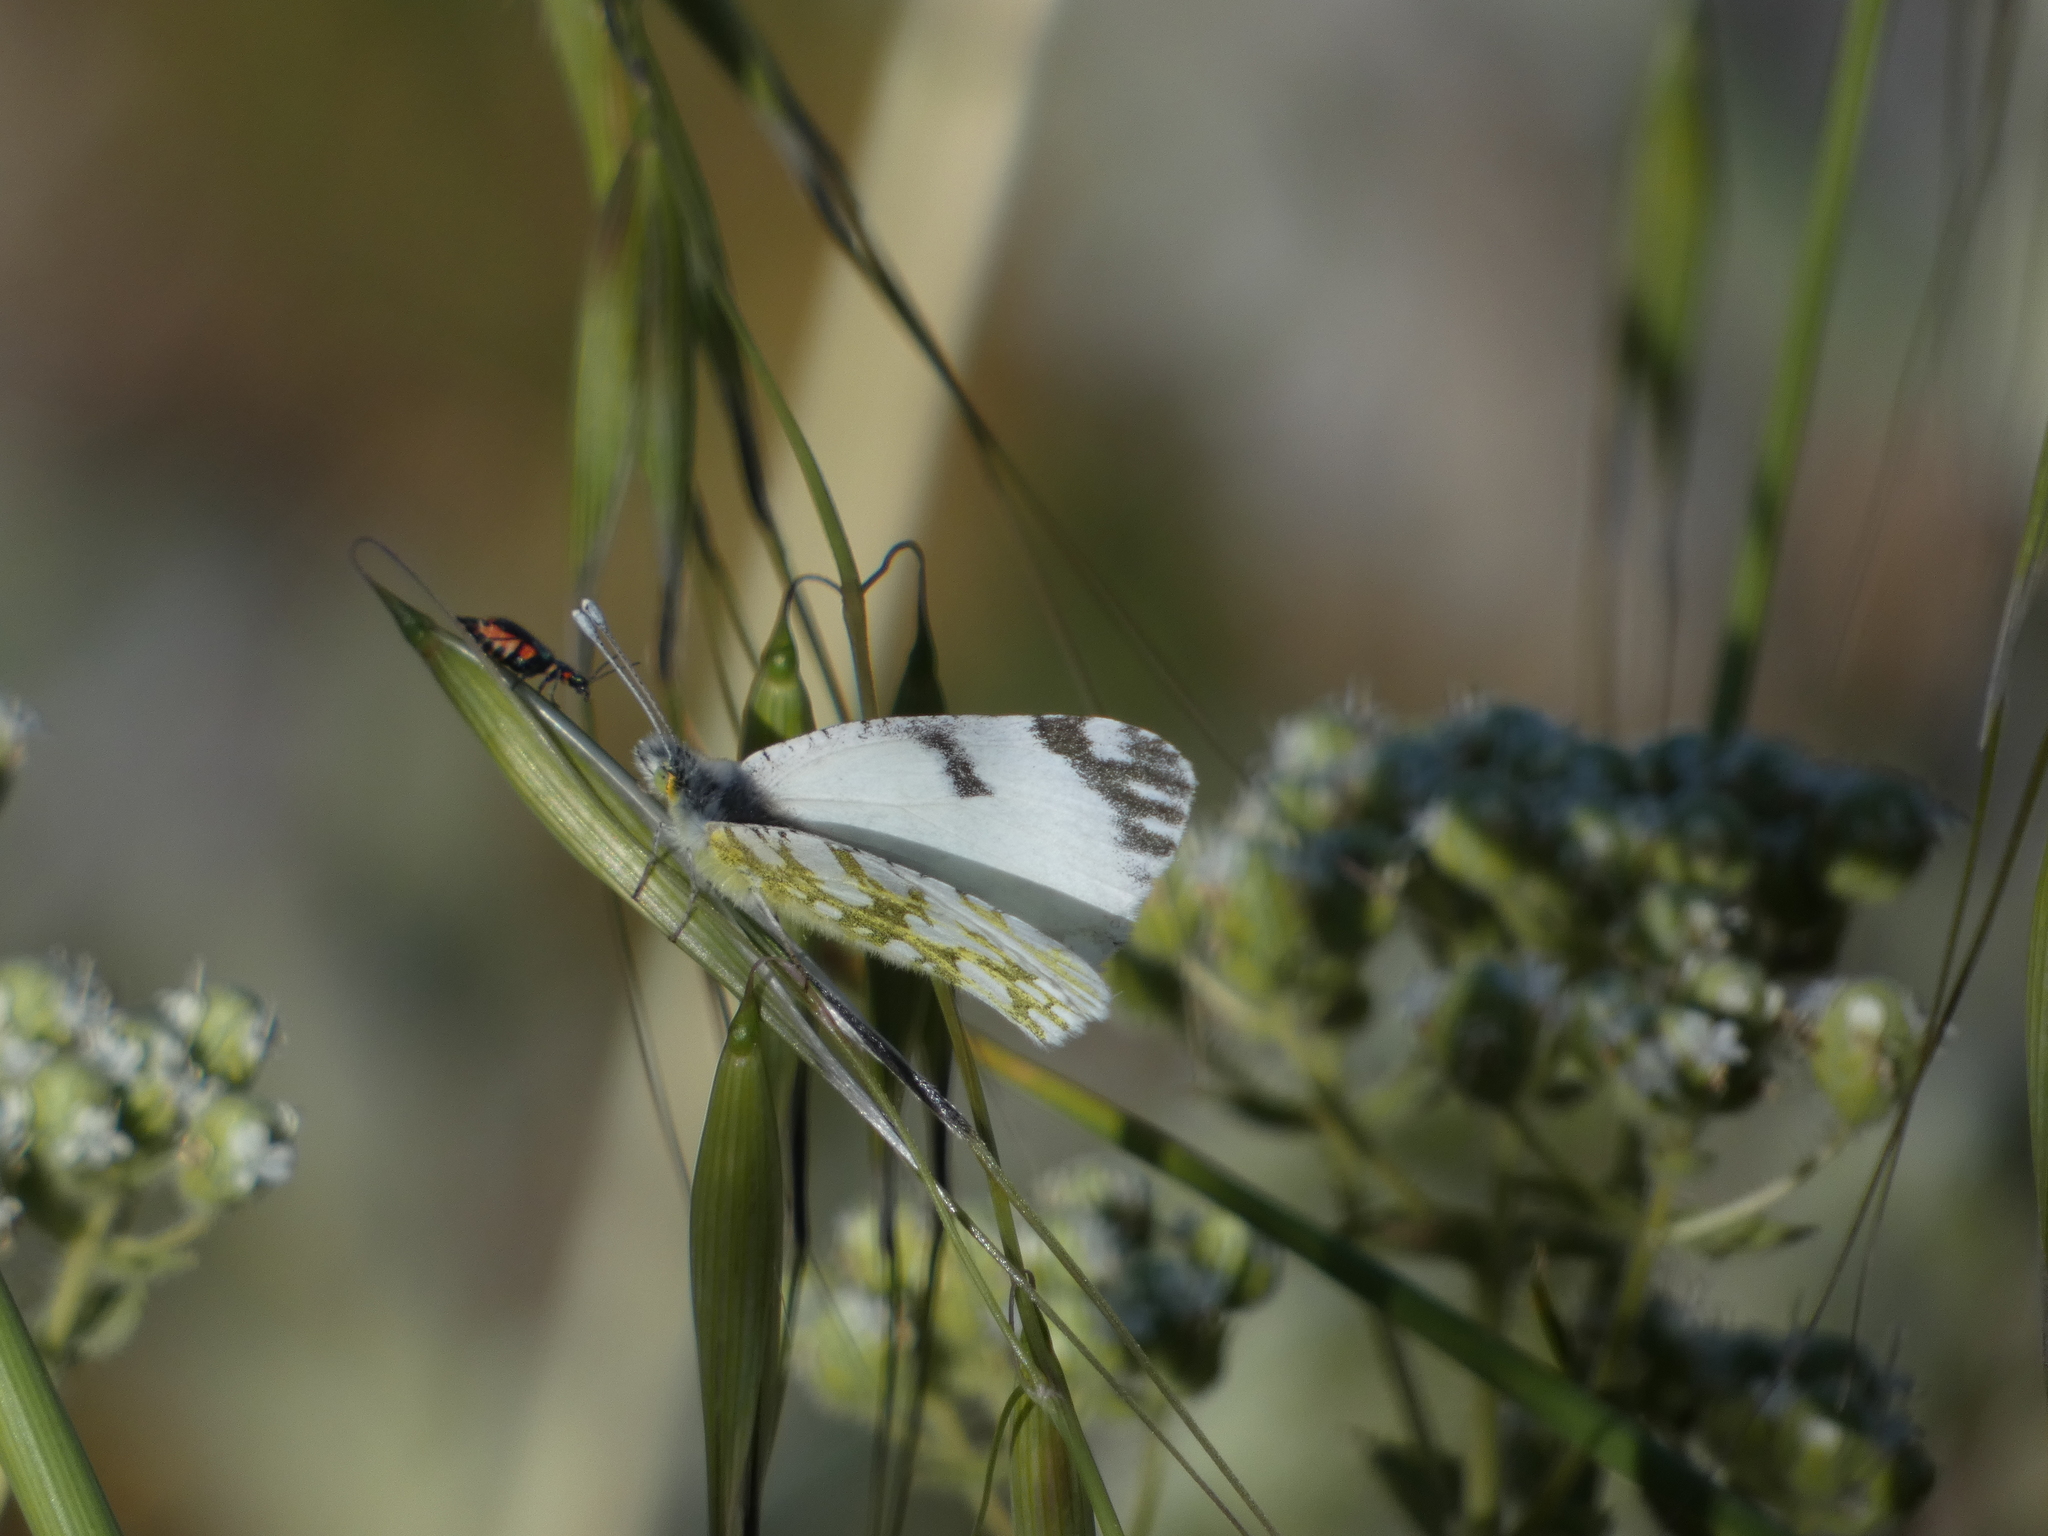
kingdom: Animalia
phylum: Arthropoda
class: Insecta
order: Lepidoptera
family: Pieridae
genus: Euchloe
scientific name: Euchloe ausonia
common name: Eastern dappled white
